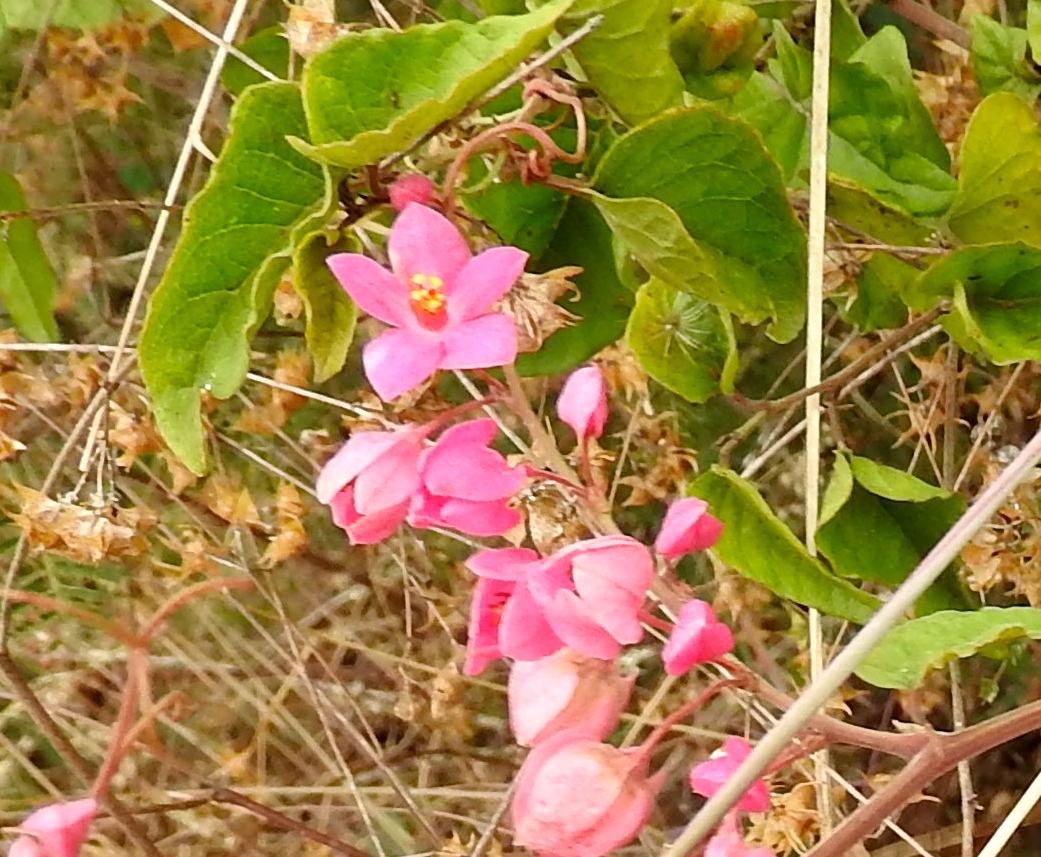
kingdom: Plantae
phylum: Tracheophyta
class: Magnoliopsida
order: Caryophyllales
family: Polygonaceae
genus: Antigonon
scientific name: Antigonon leptopus
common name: Coral vine
